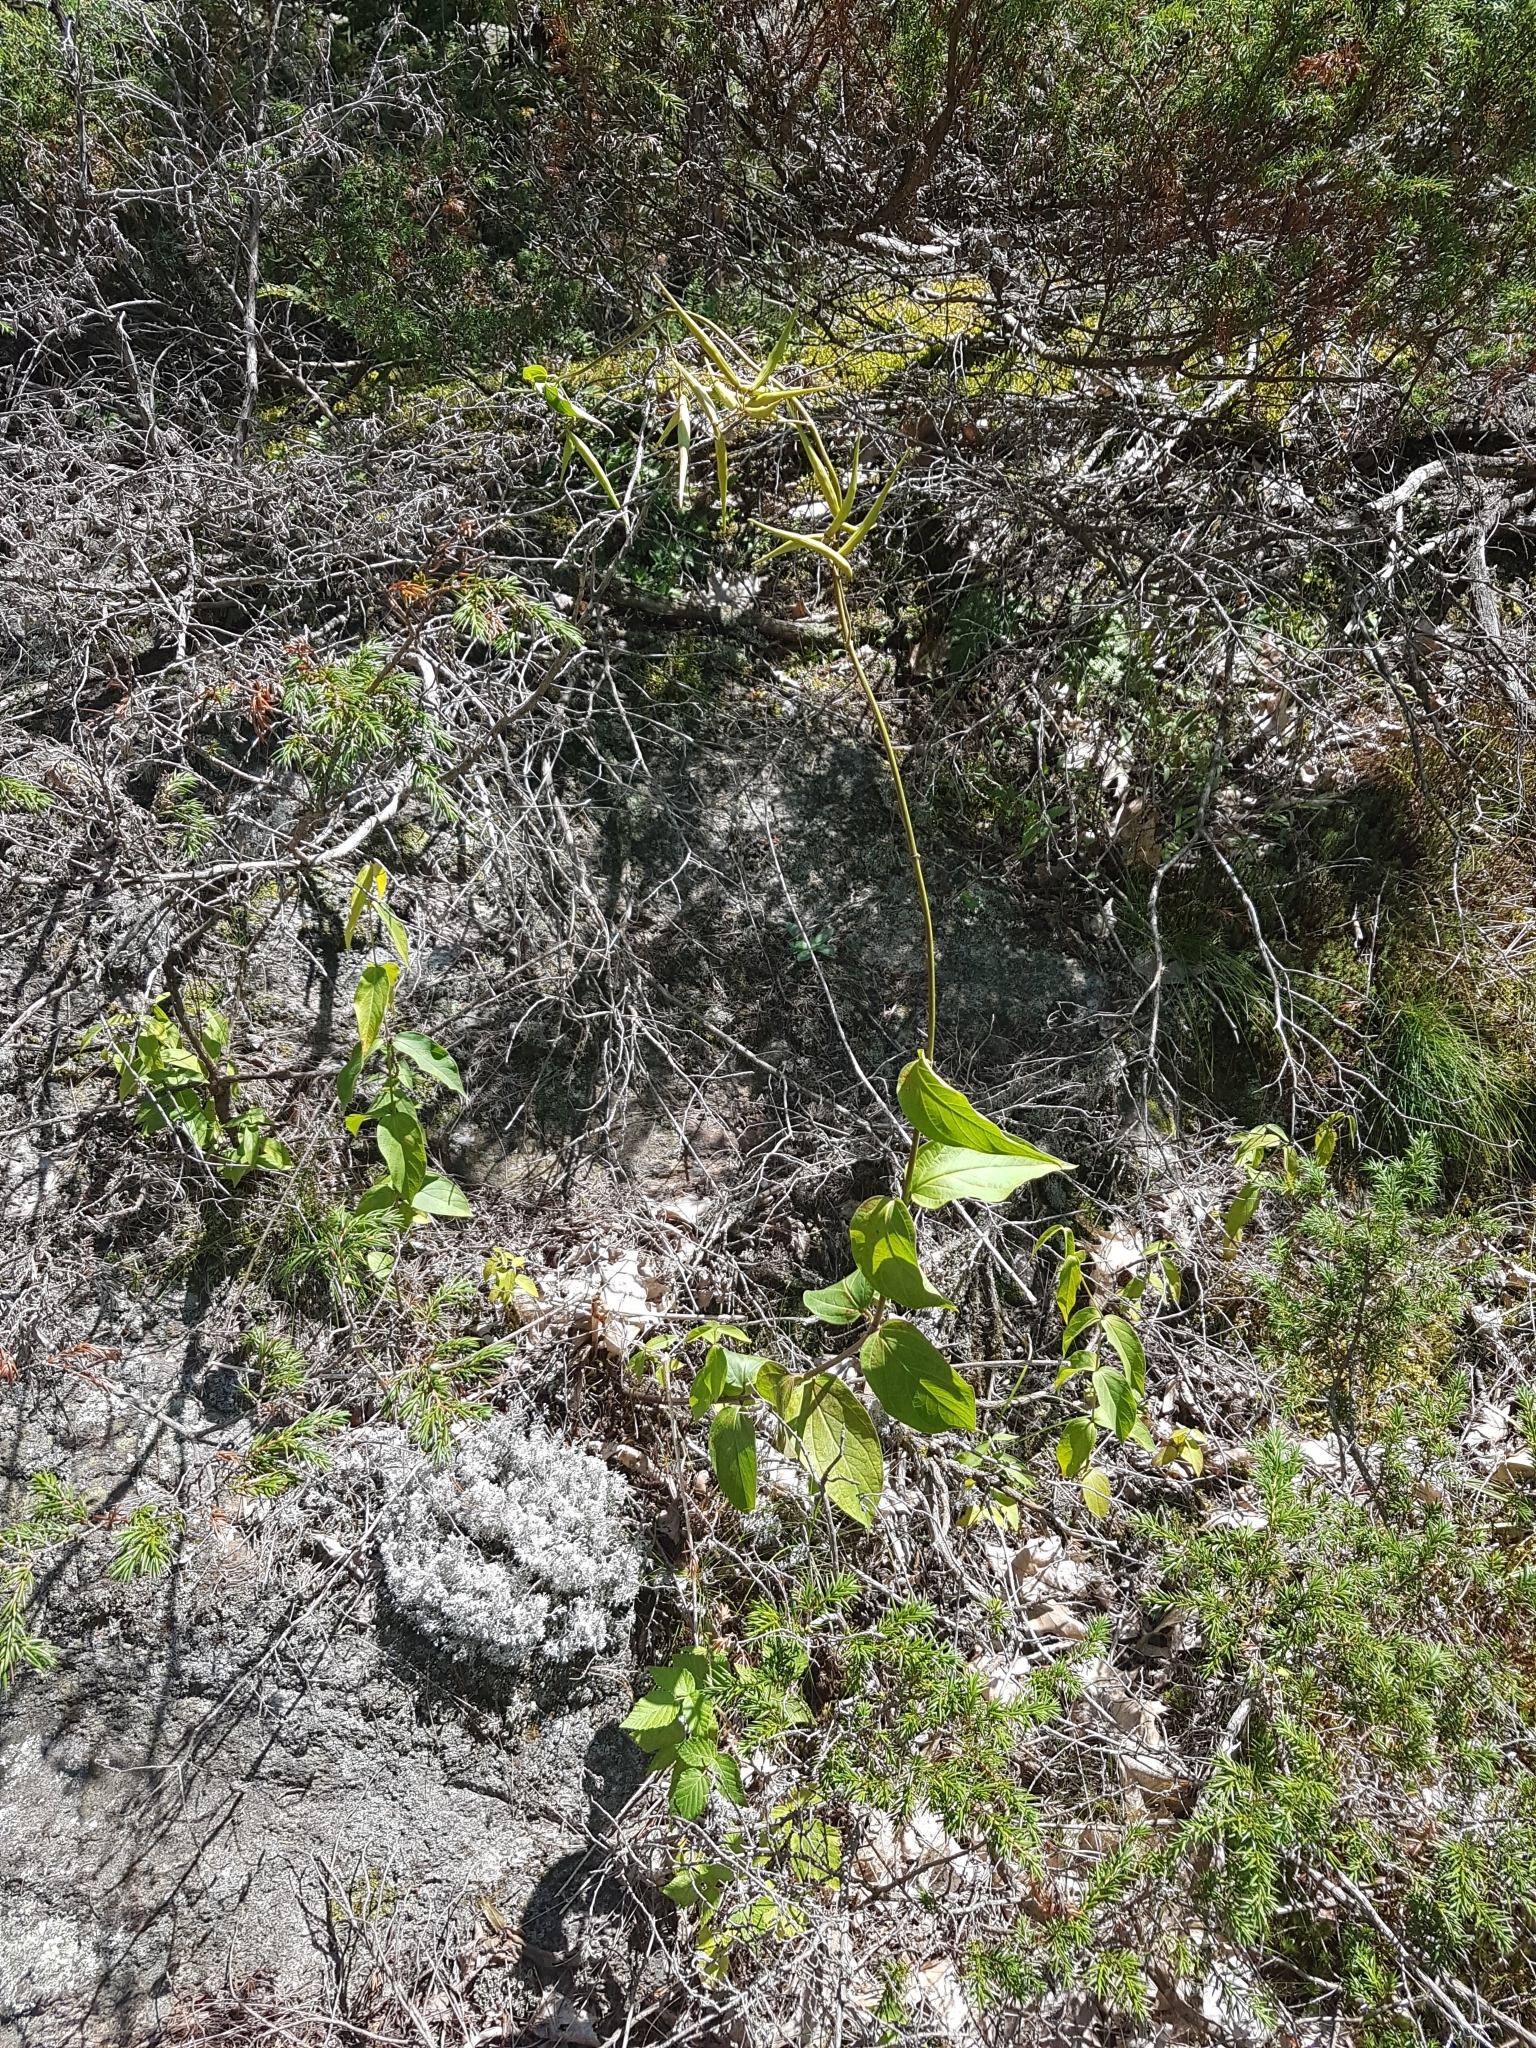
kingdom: Plantae
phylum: Tracheophyta
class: Magnoliopsida
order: Gentianales
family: Apocynaceae
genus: Vincetoxicum
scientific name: Vincetoxicum rossicum
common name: Dog-strangling vine
